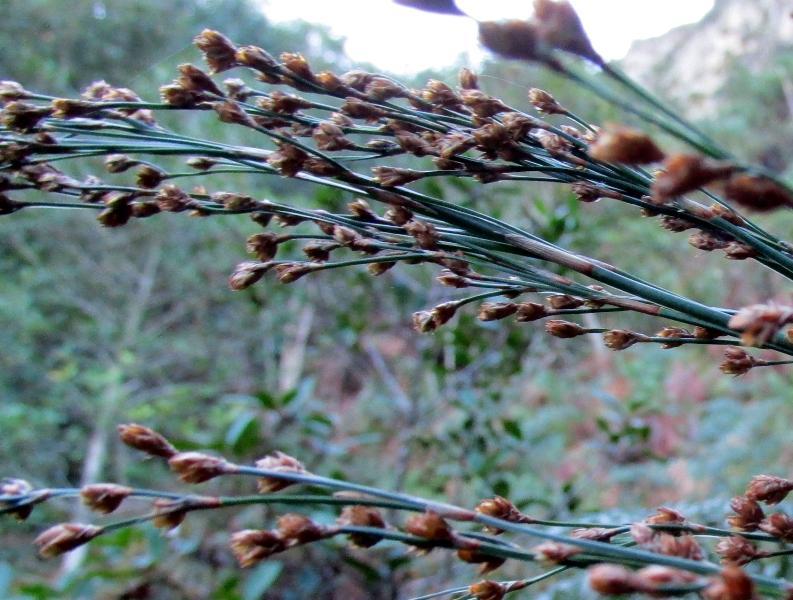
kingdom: Plantae
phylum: Tracheophyta
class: Liliopsida
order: Poales
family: Restionaceae
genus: Restio
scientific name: Restio quadratus
